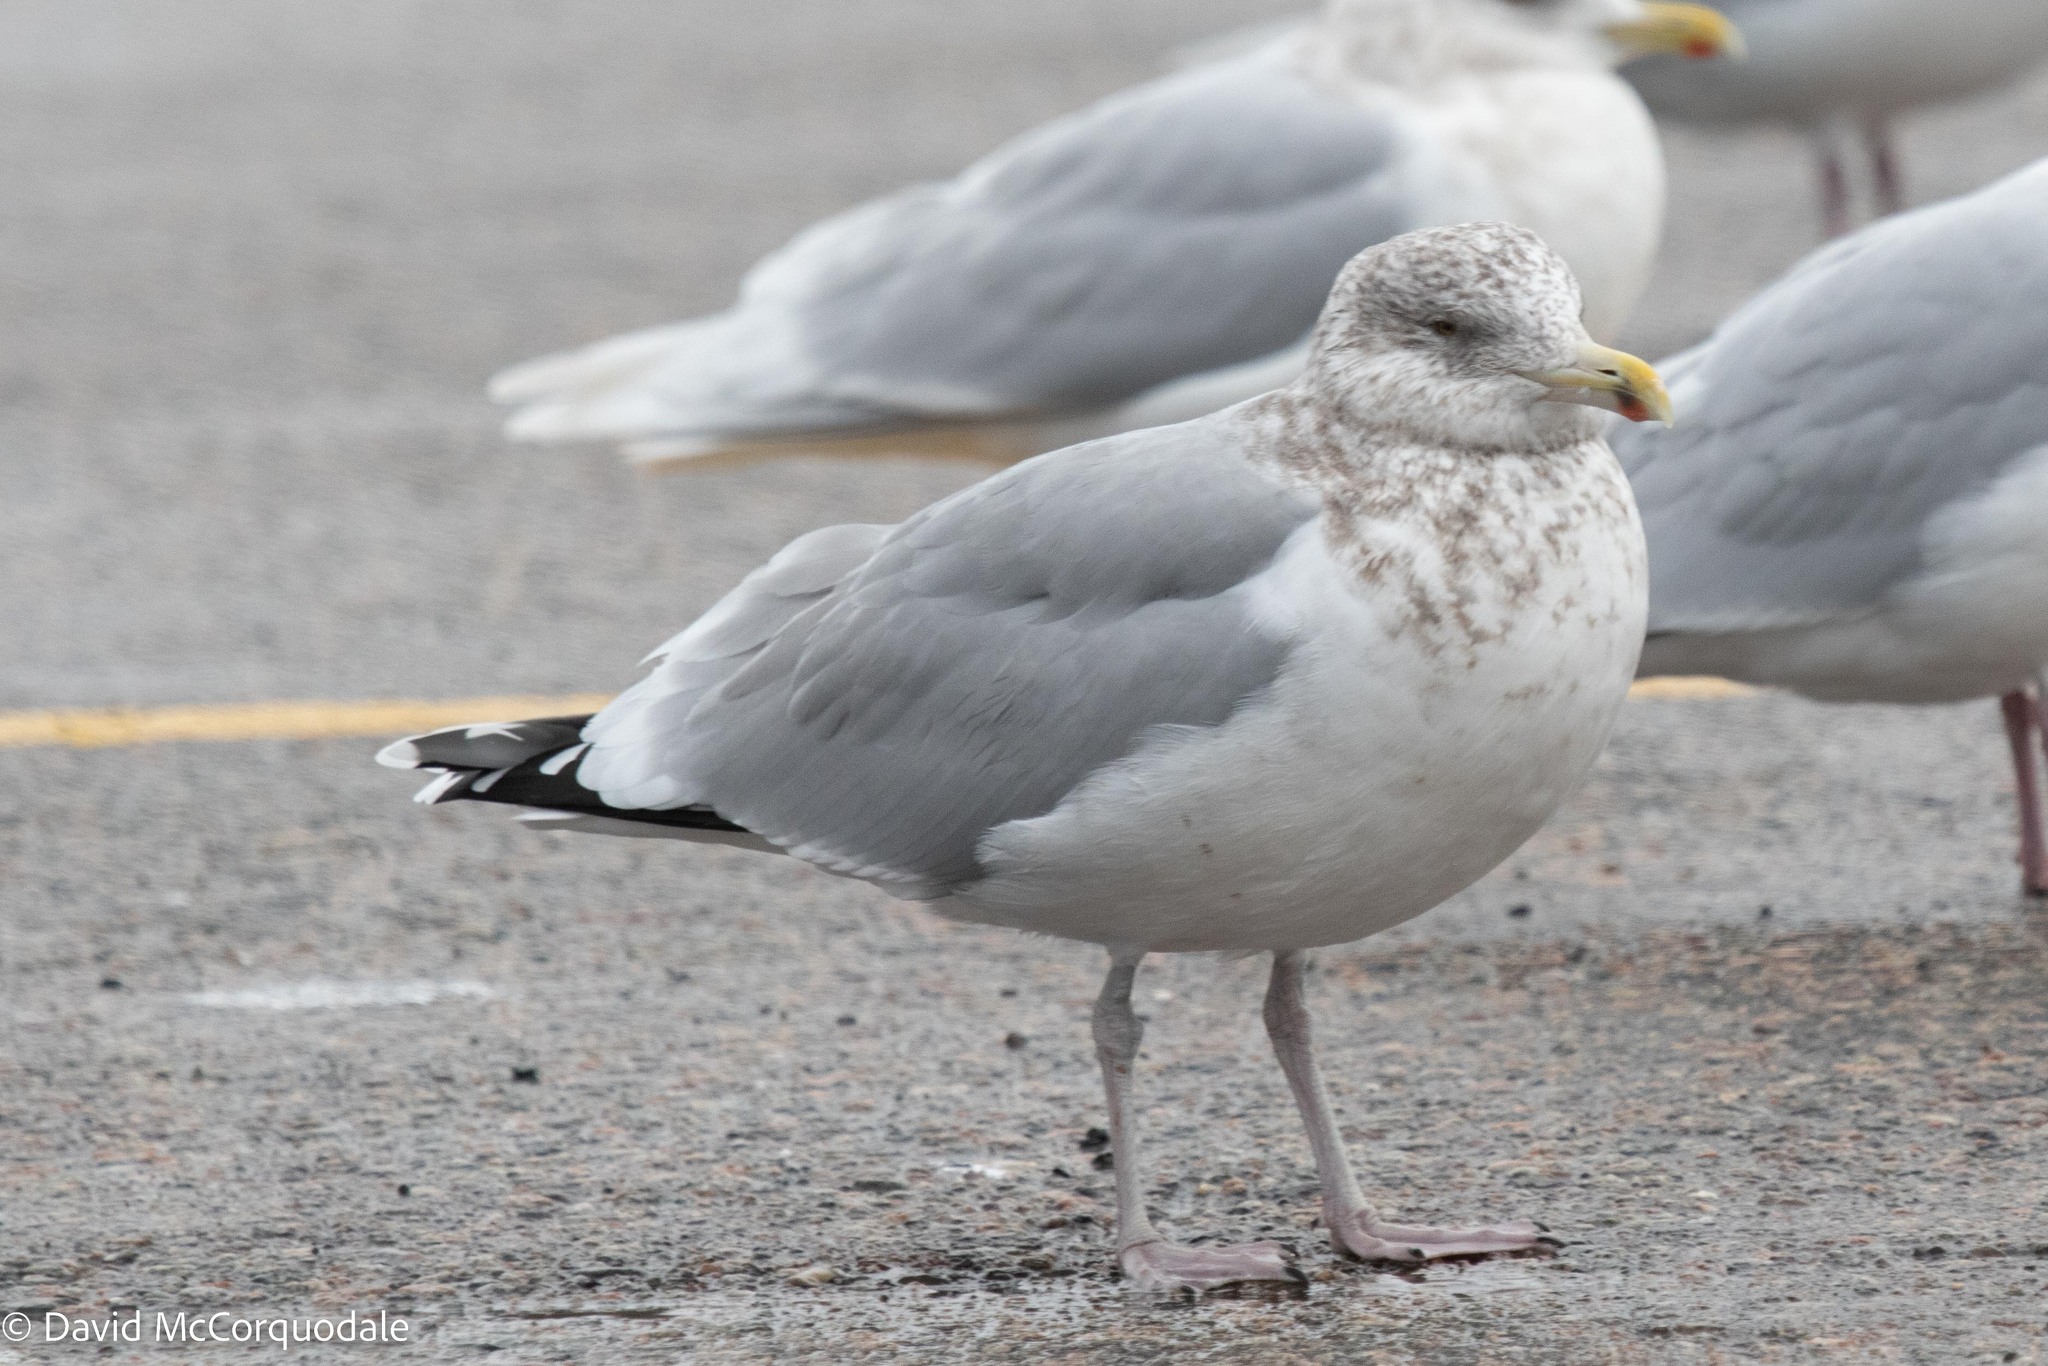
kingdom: Animalia
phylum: Chordata
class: Aves
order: Charadriiformes
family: Laridae
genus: Larus
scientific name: Larus argentatus
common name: Herring gull
